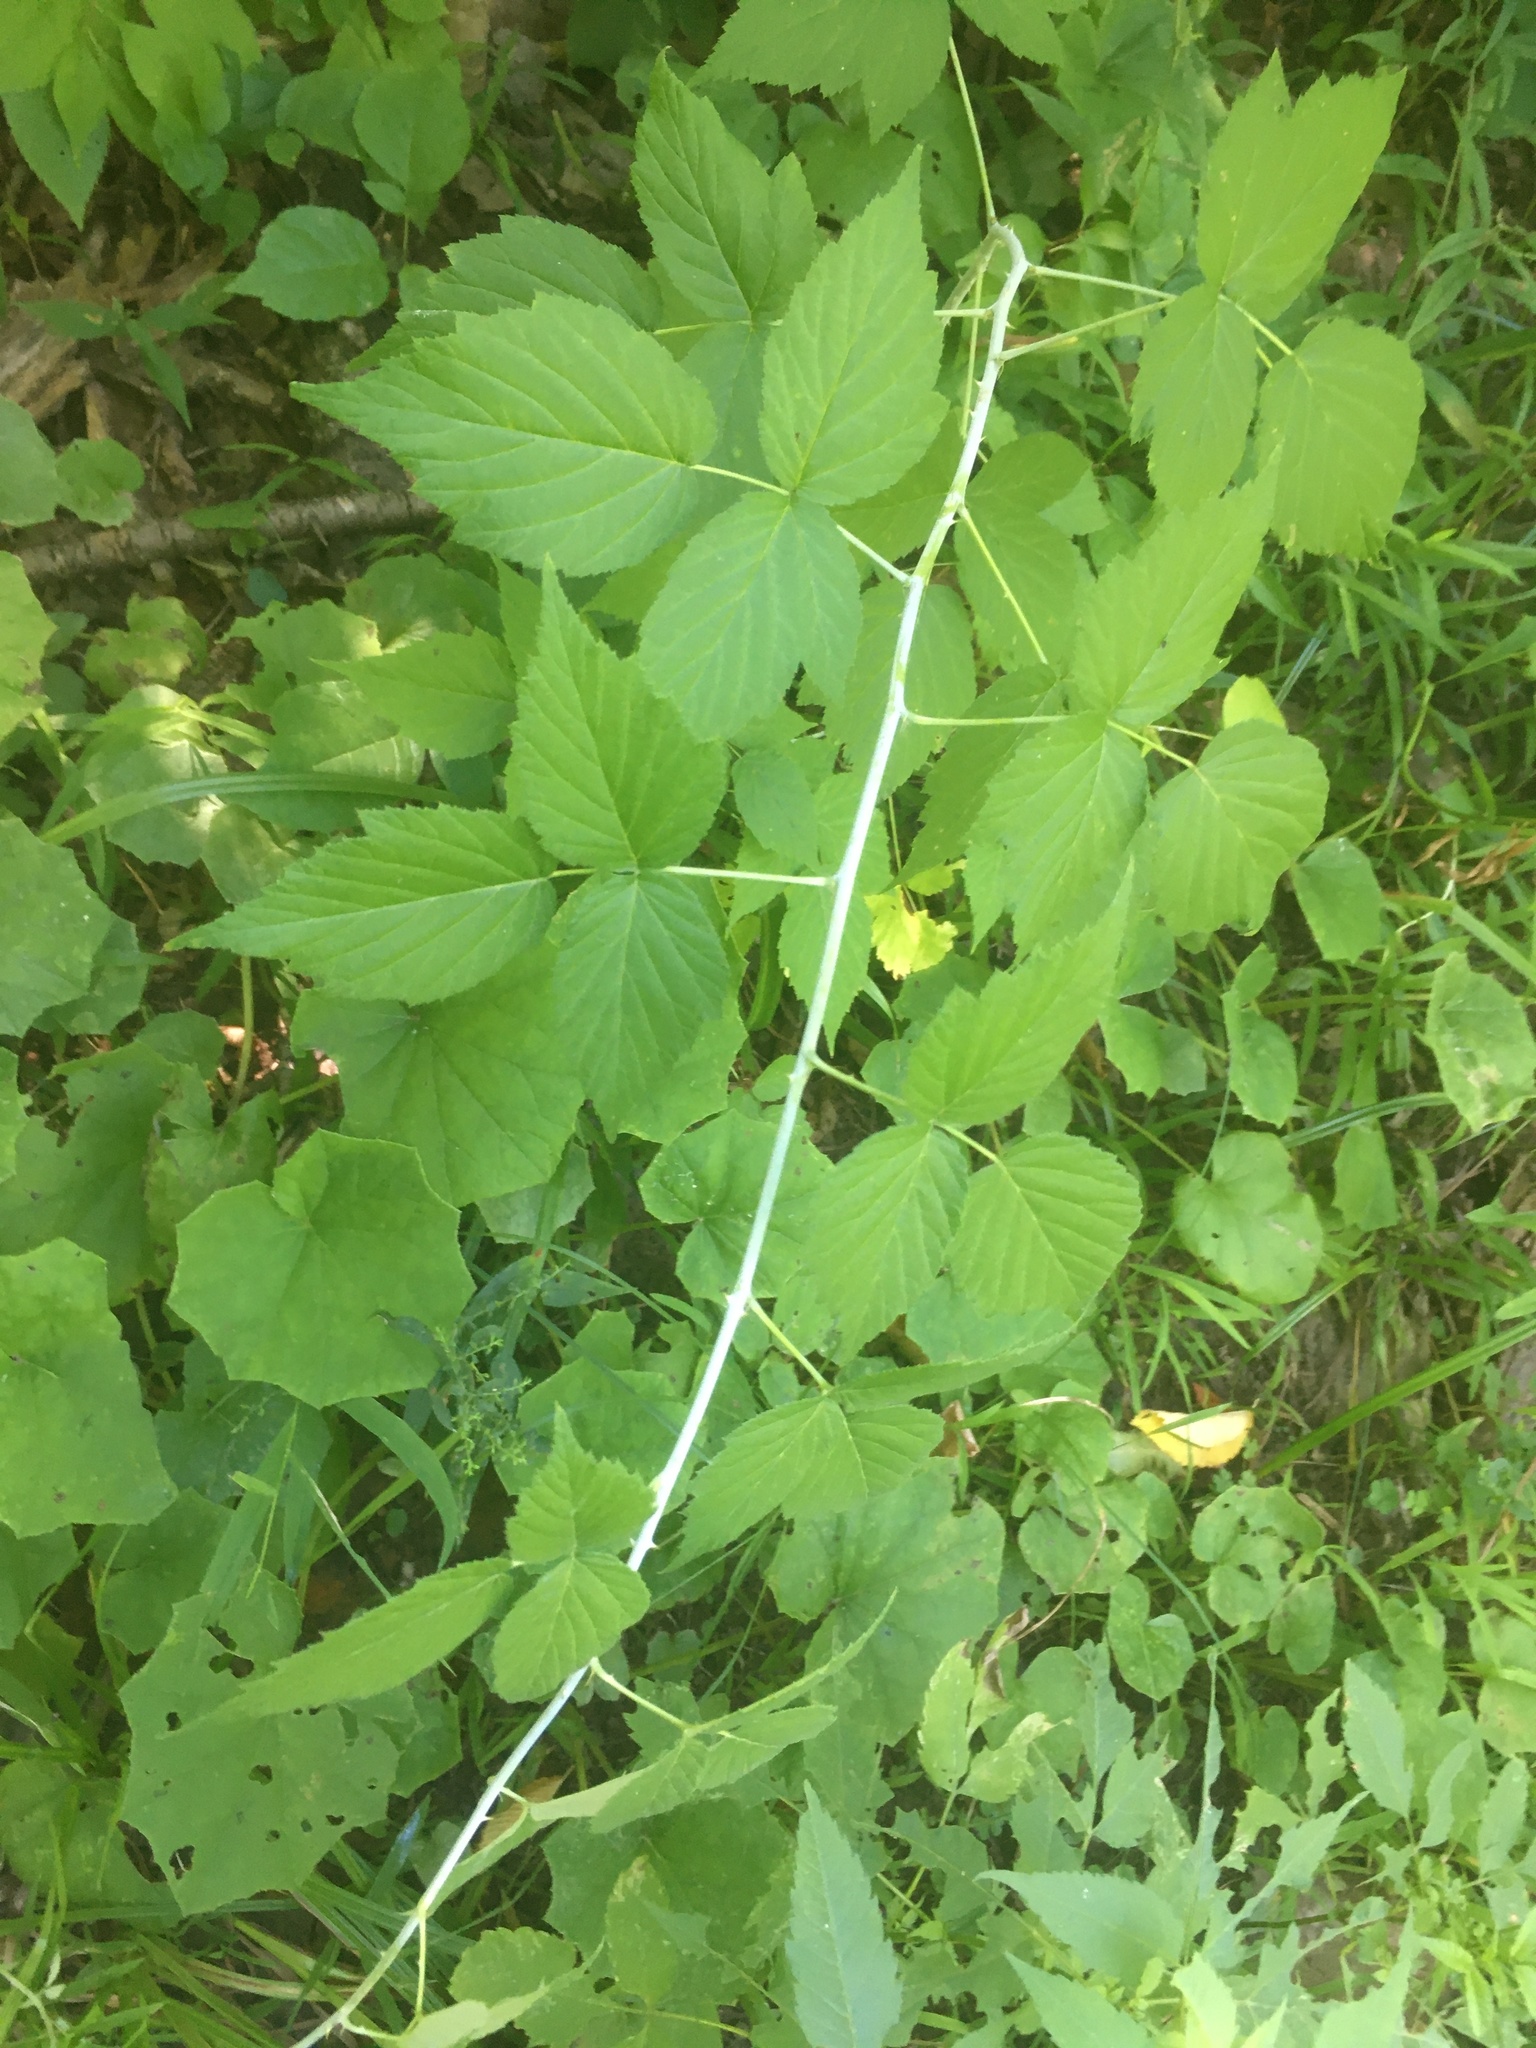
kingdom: Plantae
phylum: Tracheophyta
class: Magnoliopsida
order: Rosales
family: Rosaceae
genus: Rubus
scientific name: Rubus occidentalis
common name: Black raspberry
